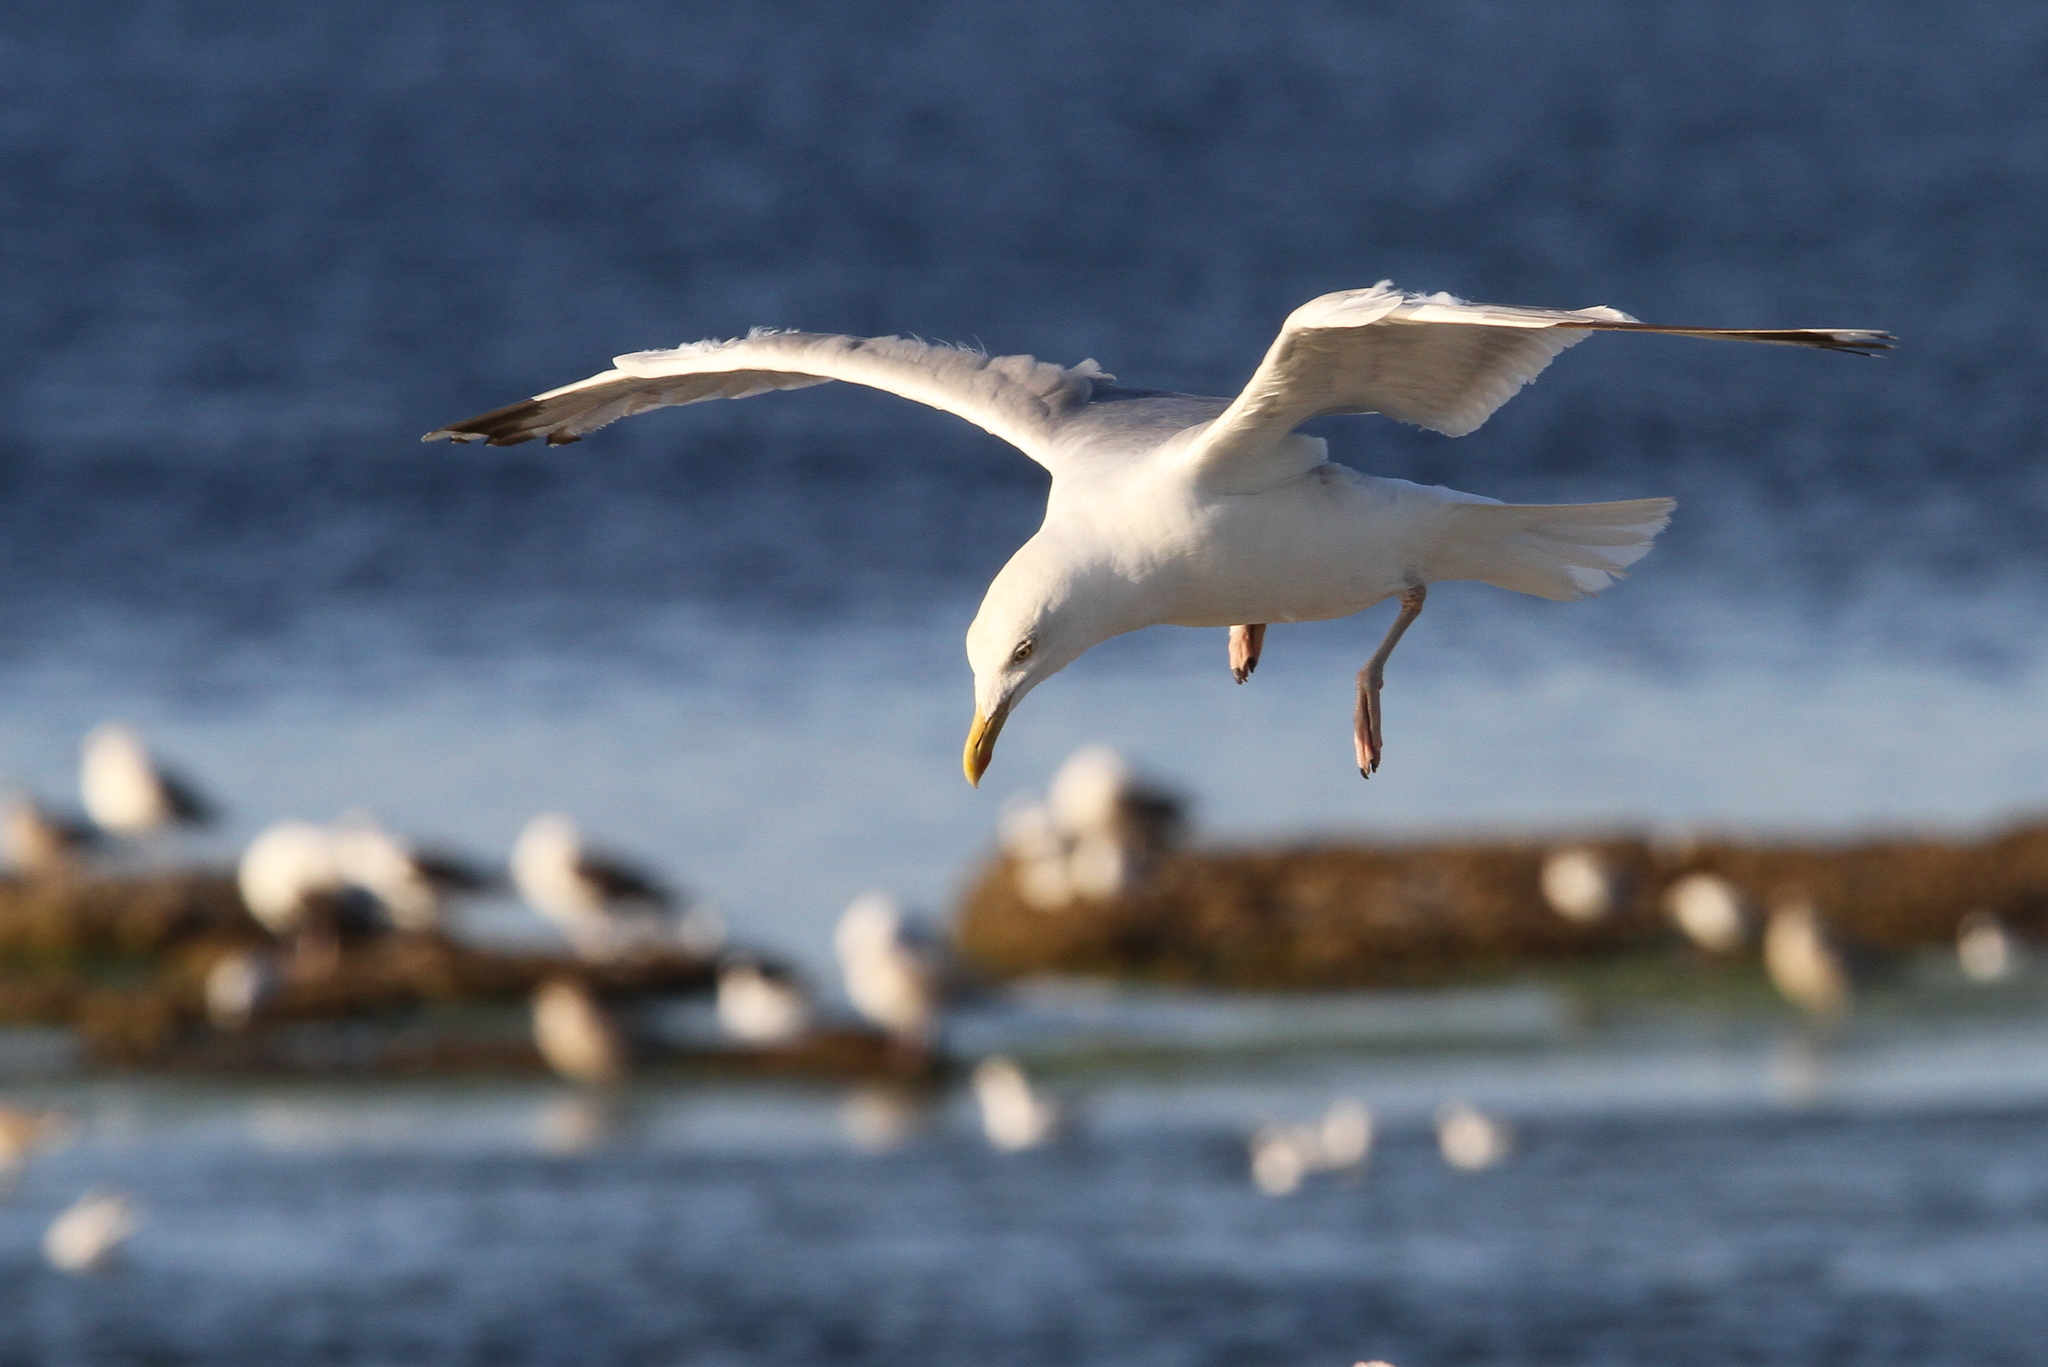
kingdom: Animalia
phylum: Chordata
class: Aves
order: Charadriiformes
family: Laridae
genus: Larus
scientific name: Larus argentatus
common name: Herring gull
